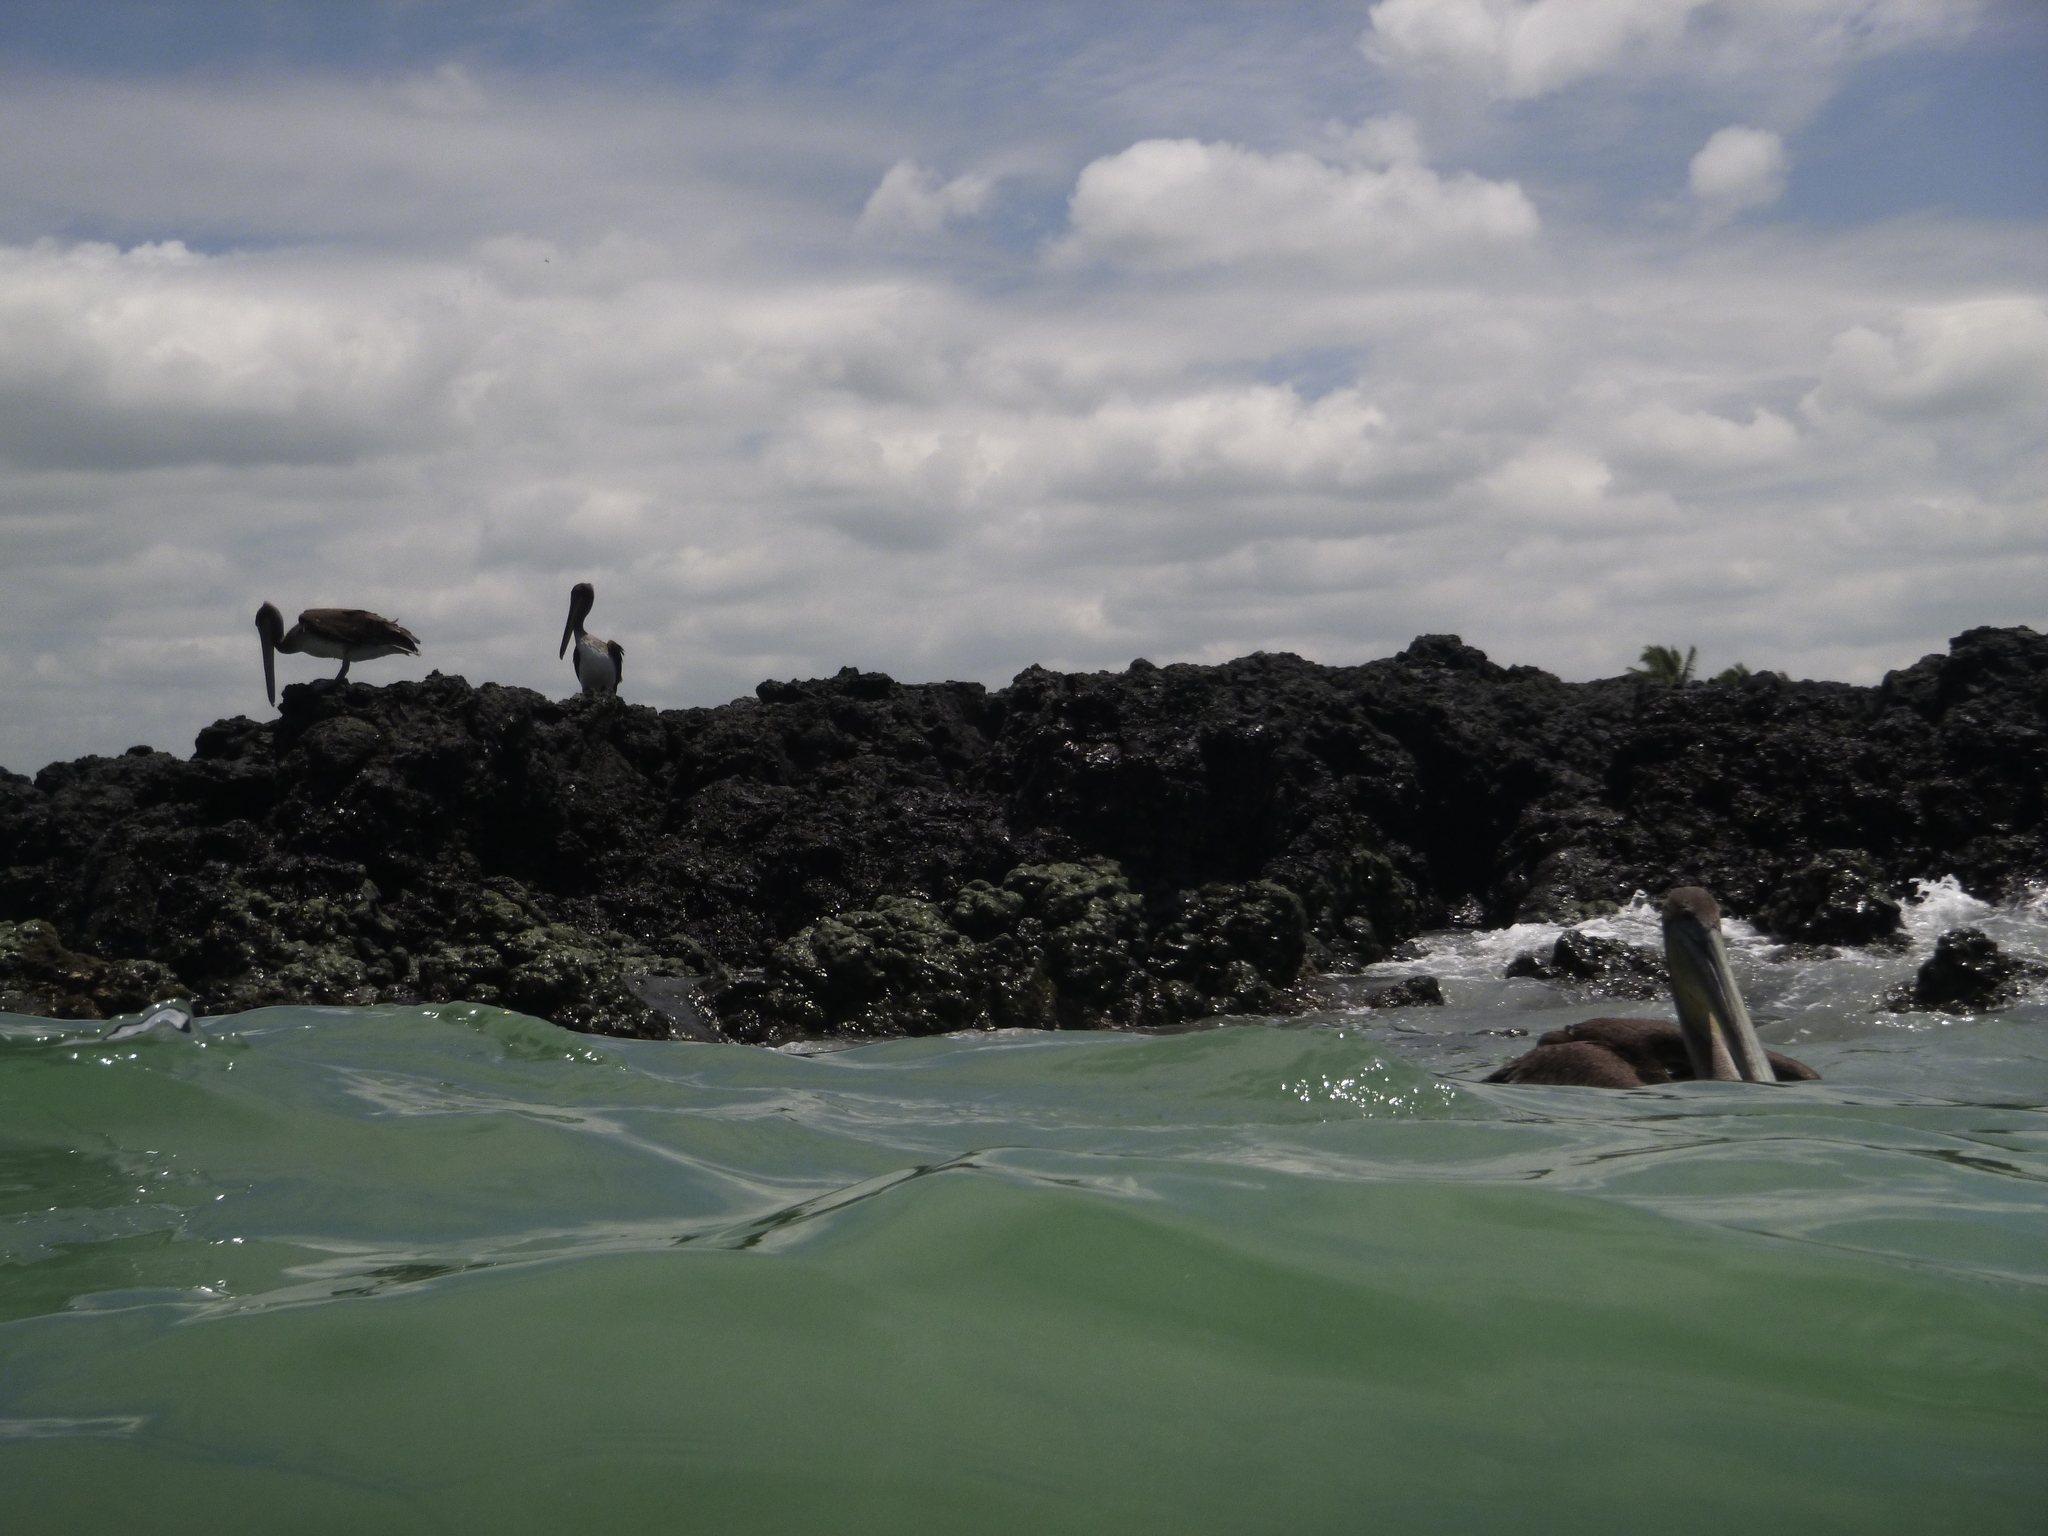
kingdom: Animalia
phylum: Chordata
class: Aves
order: Pelecaniformes
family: Pelecanidae
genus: Pelecanus
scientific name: Pelecanus occidentalis
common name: Brown pelican
